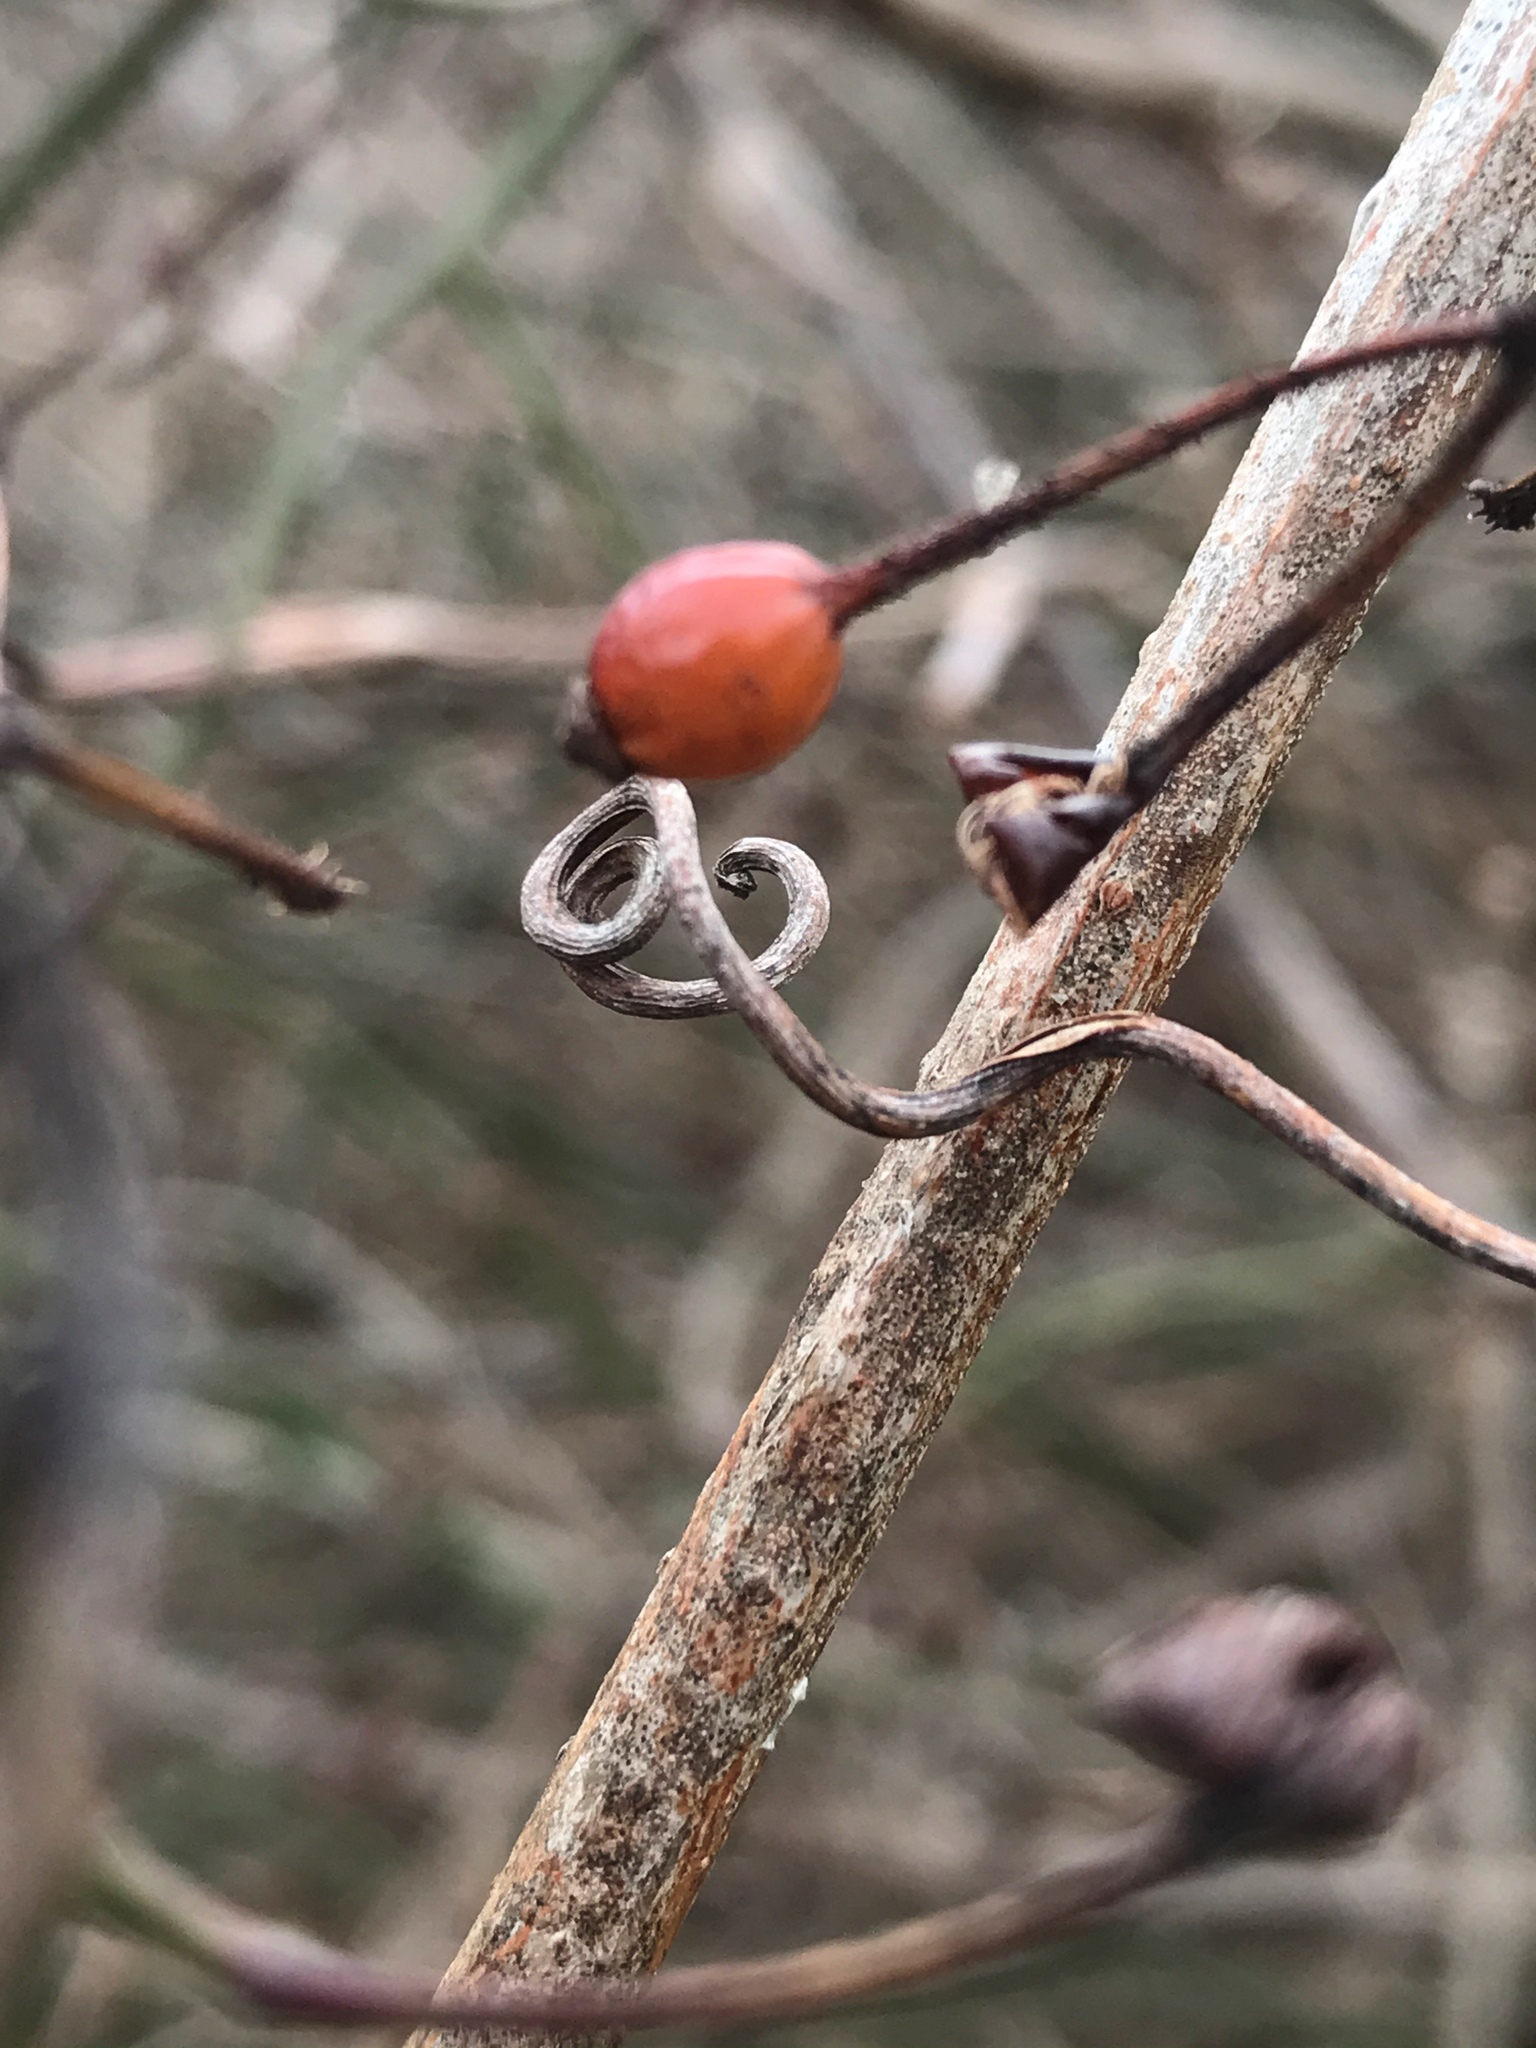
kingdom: Plantae
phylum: Tracheophyta
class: Magnoliopsida
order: Rosales
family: Rosaceae
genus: Rosa
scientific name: Rosa multiflora
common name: Multiflora rose
